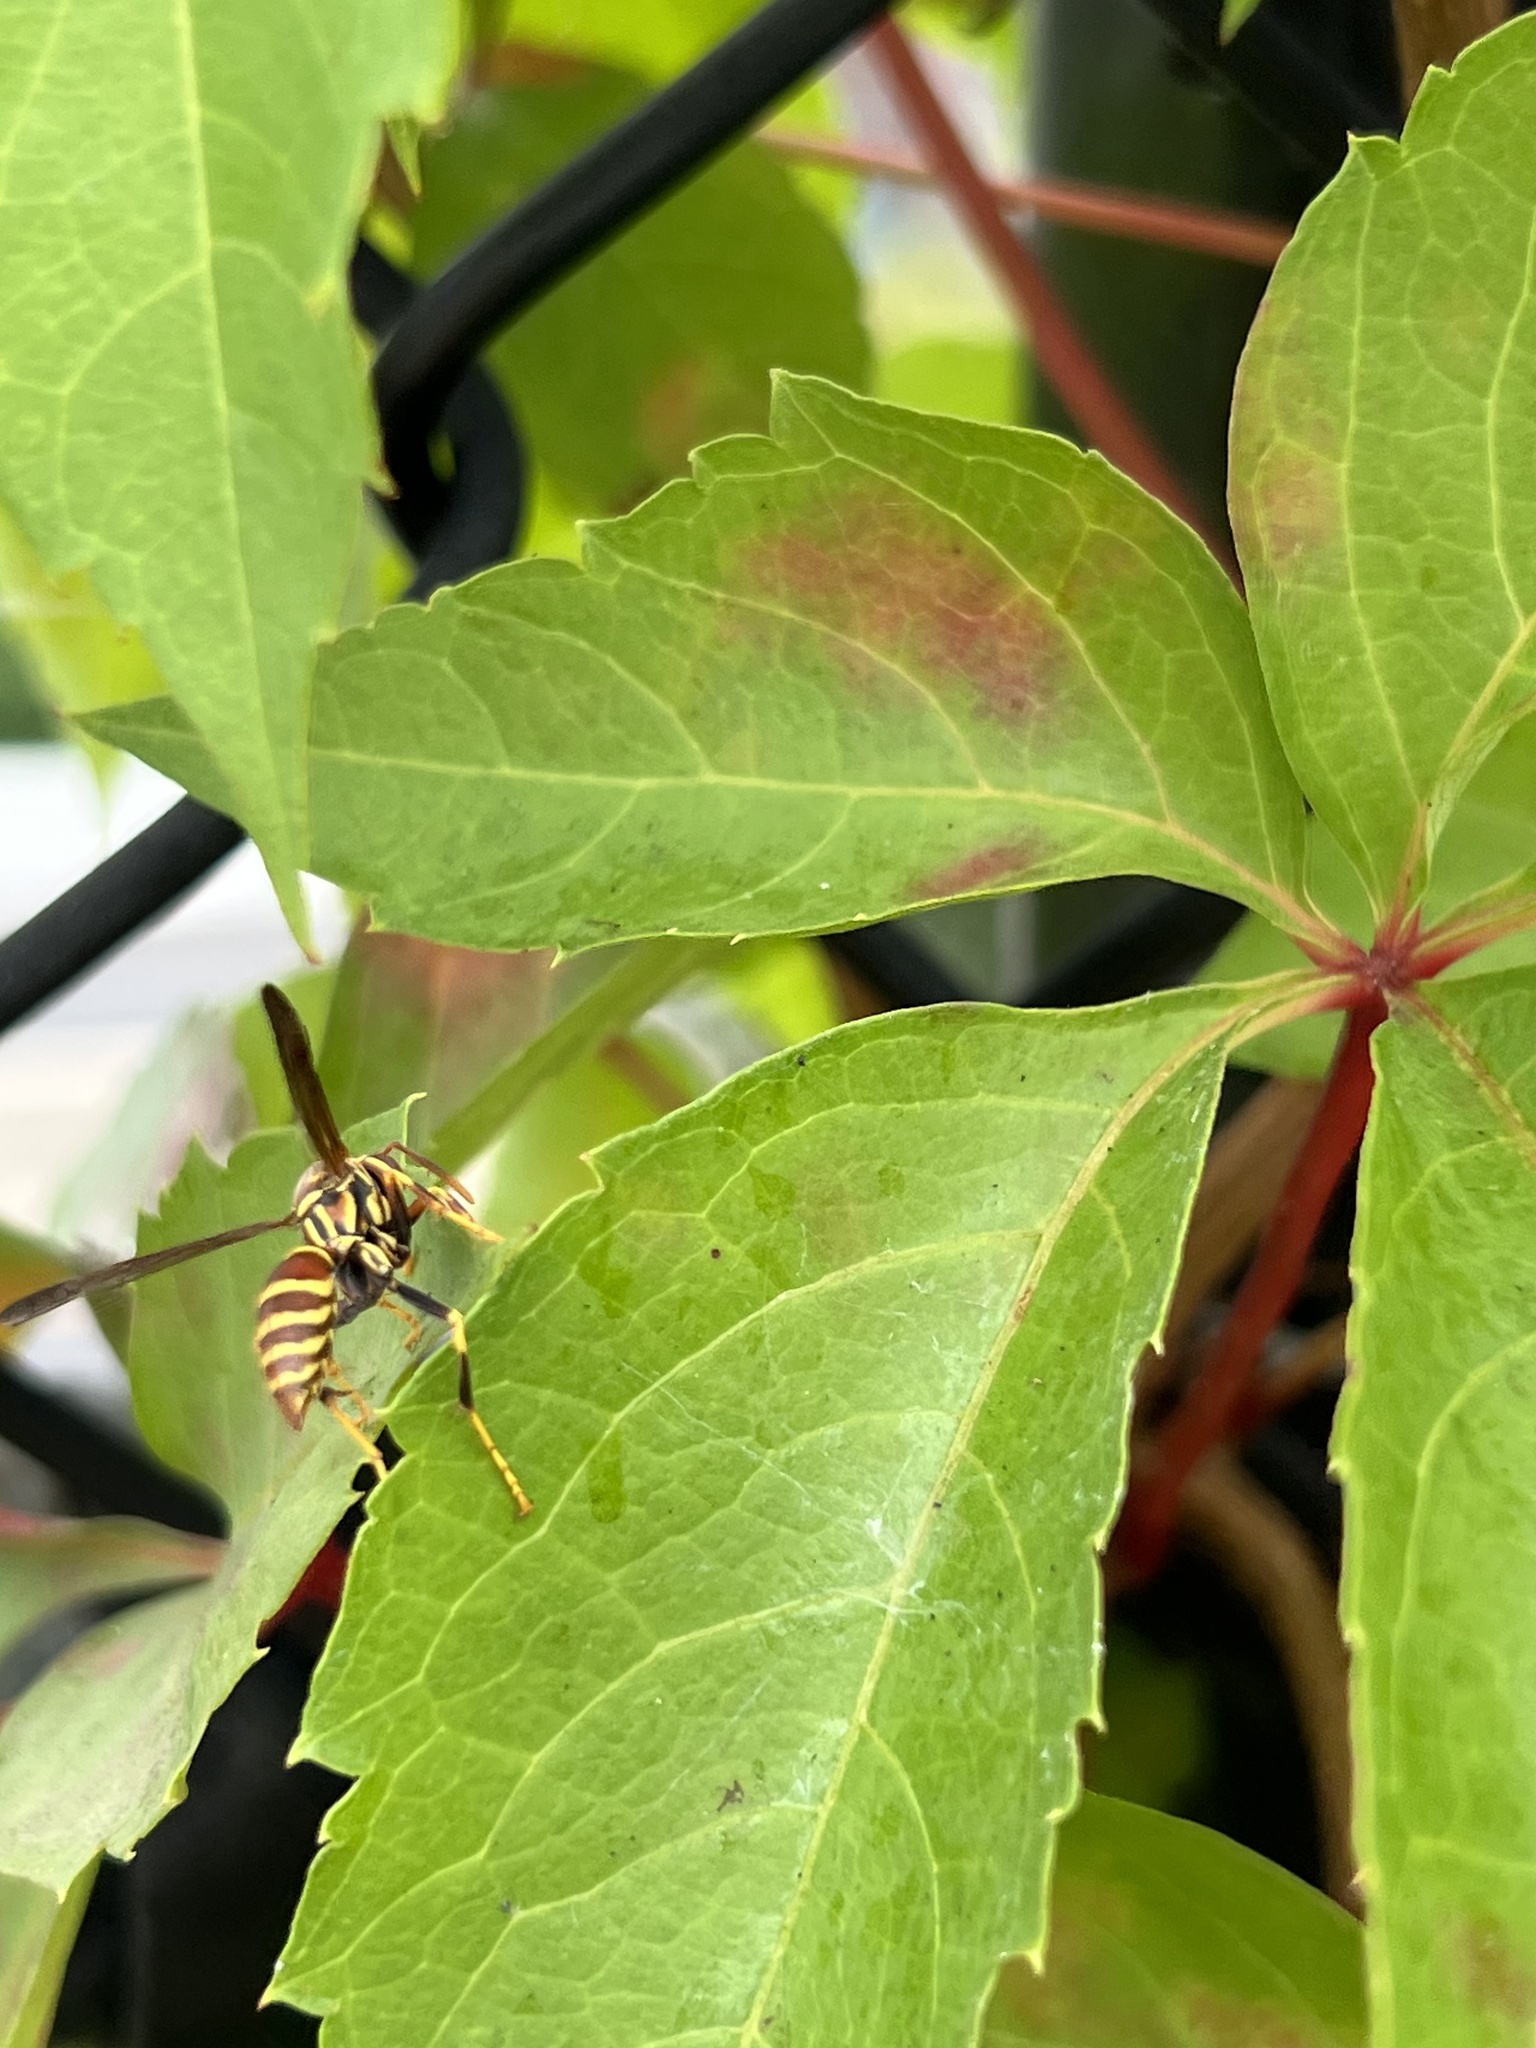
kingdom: Animalia
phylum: Arthropoda
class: Insecta
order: Hymenoptera
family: Eumenidae
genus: Polistes
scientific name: Polistes exclamans
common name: Paper wasp
